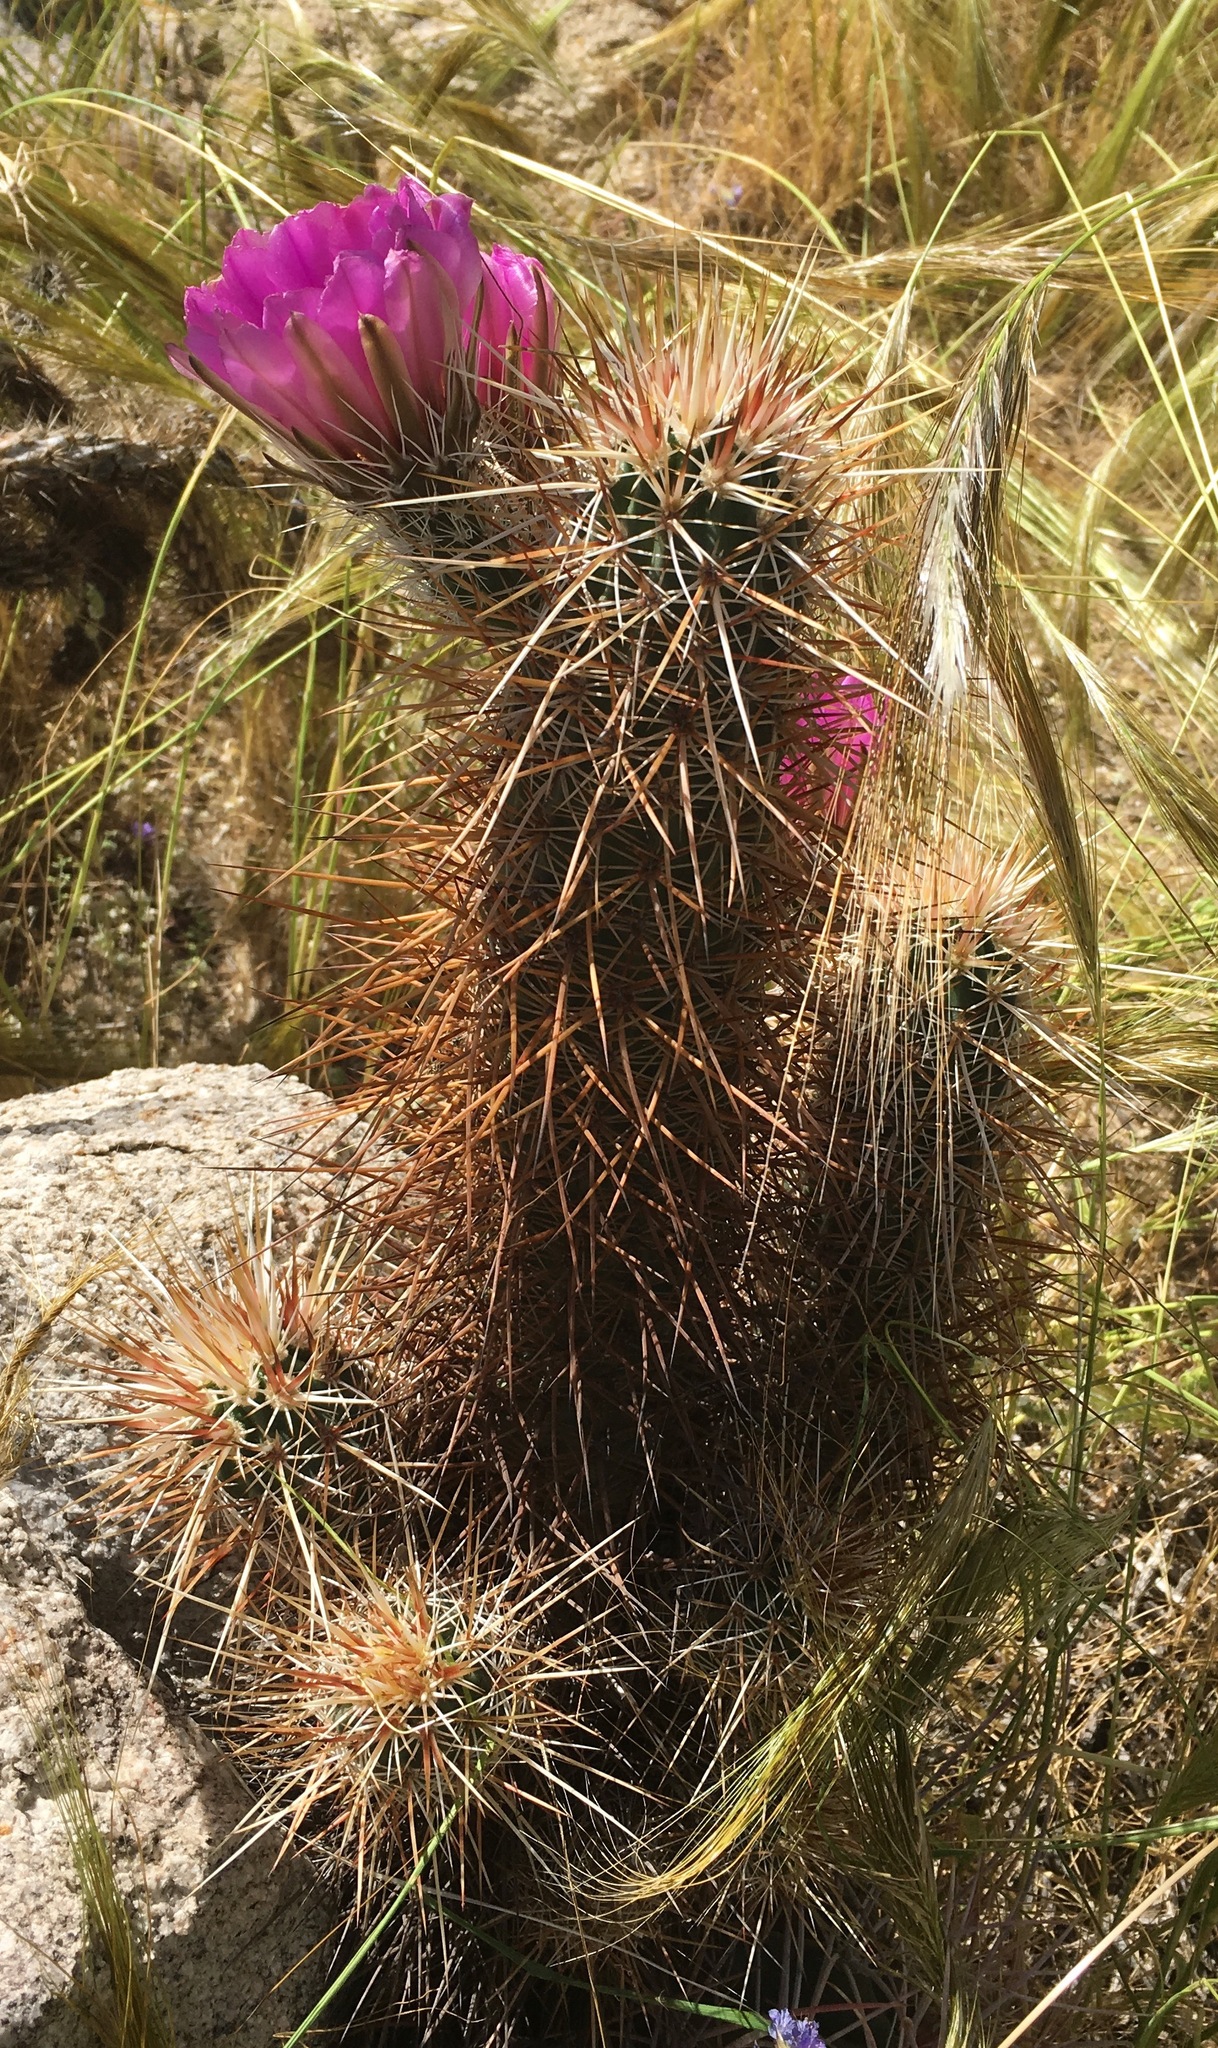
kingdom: Plantae
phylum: Tracheophyta
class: Magnoliopsida
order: Caryophyllales
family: Cactaceae
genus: Echinocereus
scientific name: Echinocereus engelmannii
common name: Engelmann's hedgehog cactus
